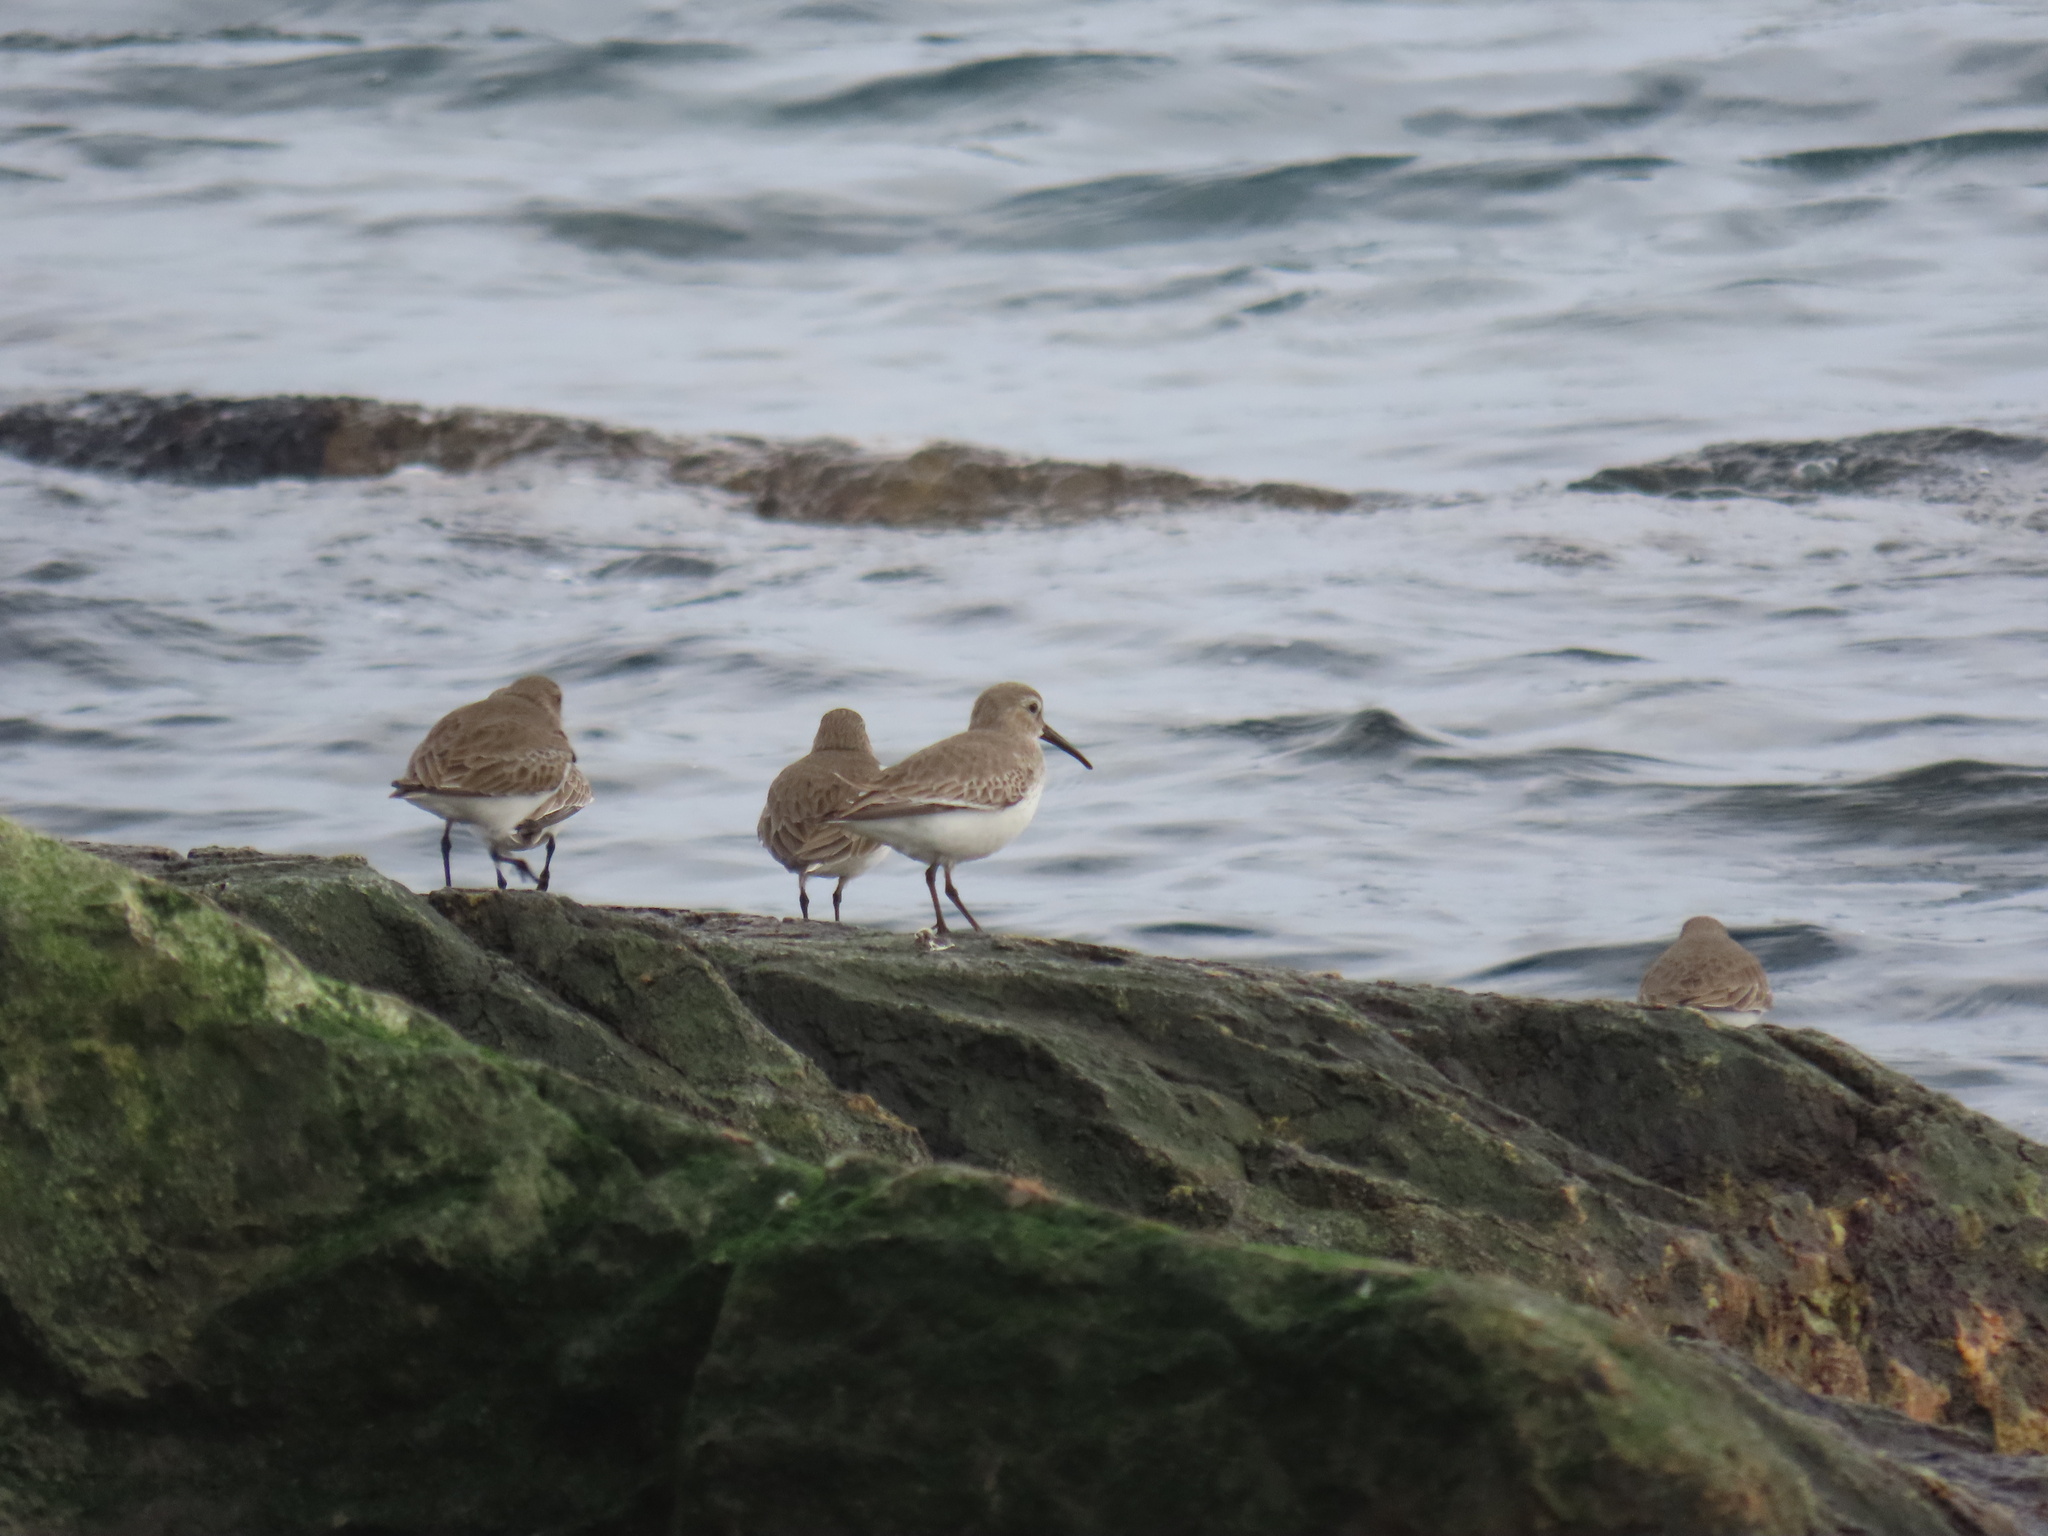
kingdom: Animalia
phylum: Chordata
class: Aves
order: Charadriiformes
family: Scolopacidae
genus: Calidris
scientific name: Calidris alpina
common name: Dunlin
